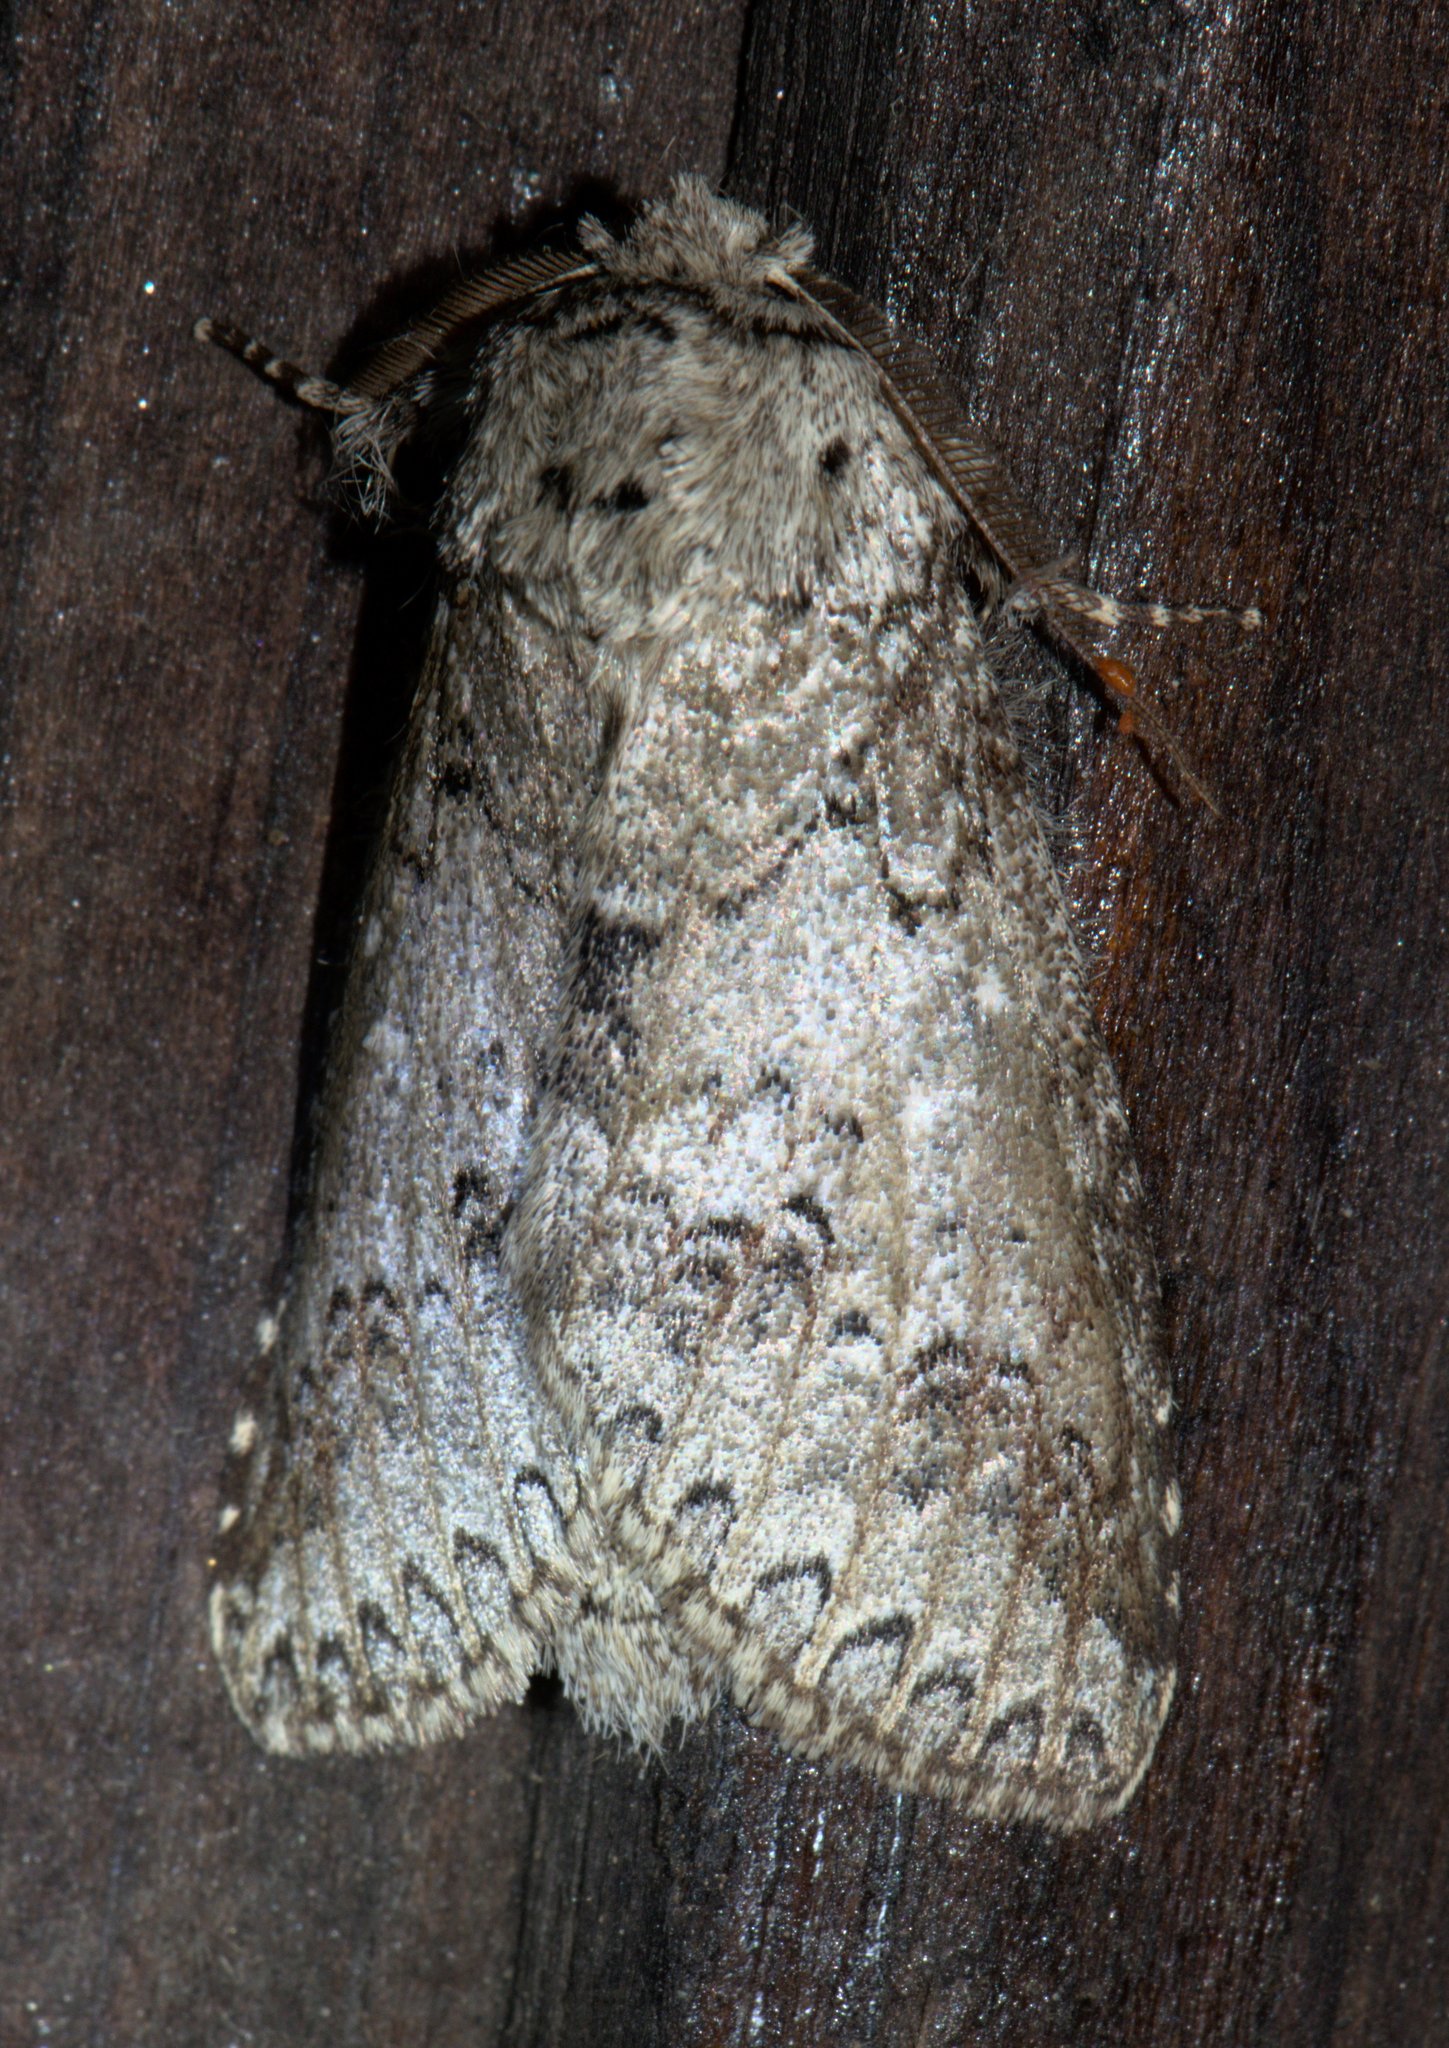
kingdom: Animalia
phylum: Arthropoda
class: Insecta
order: Lepidoptera
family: Notodontidae
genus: Pseudofentonia
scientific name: Pseudofentonia argentifera
